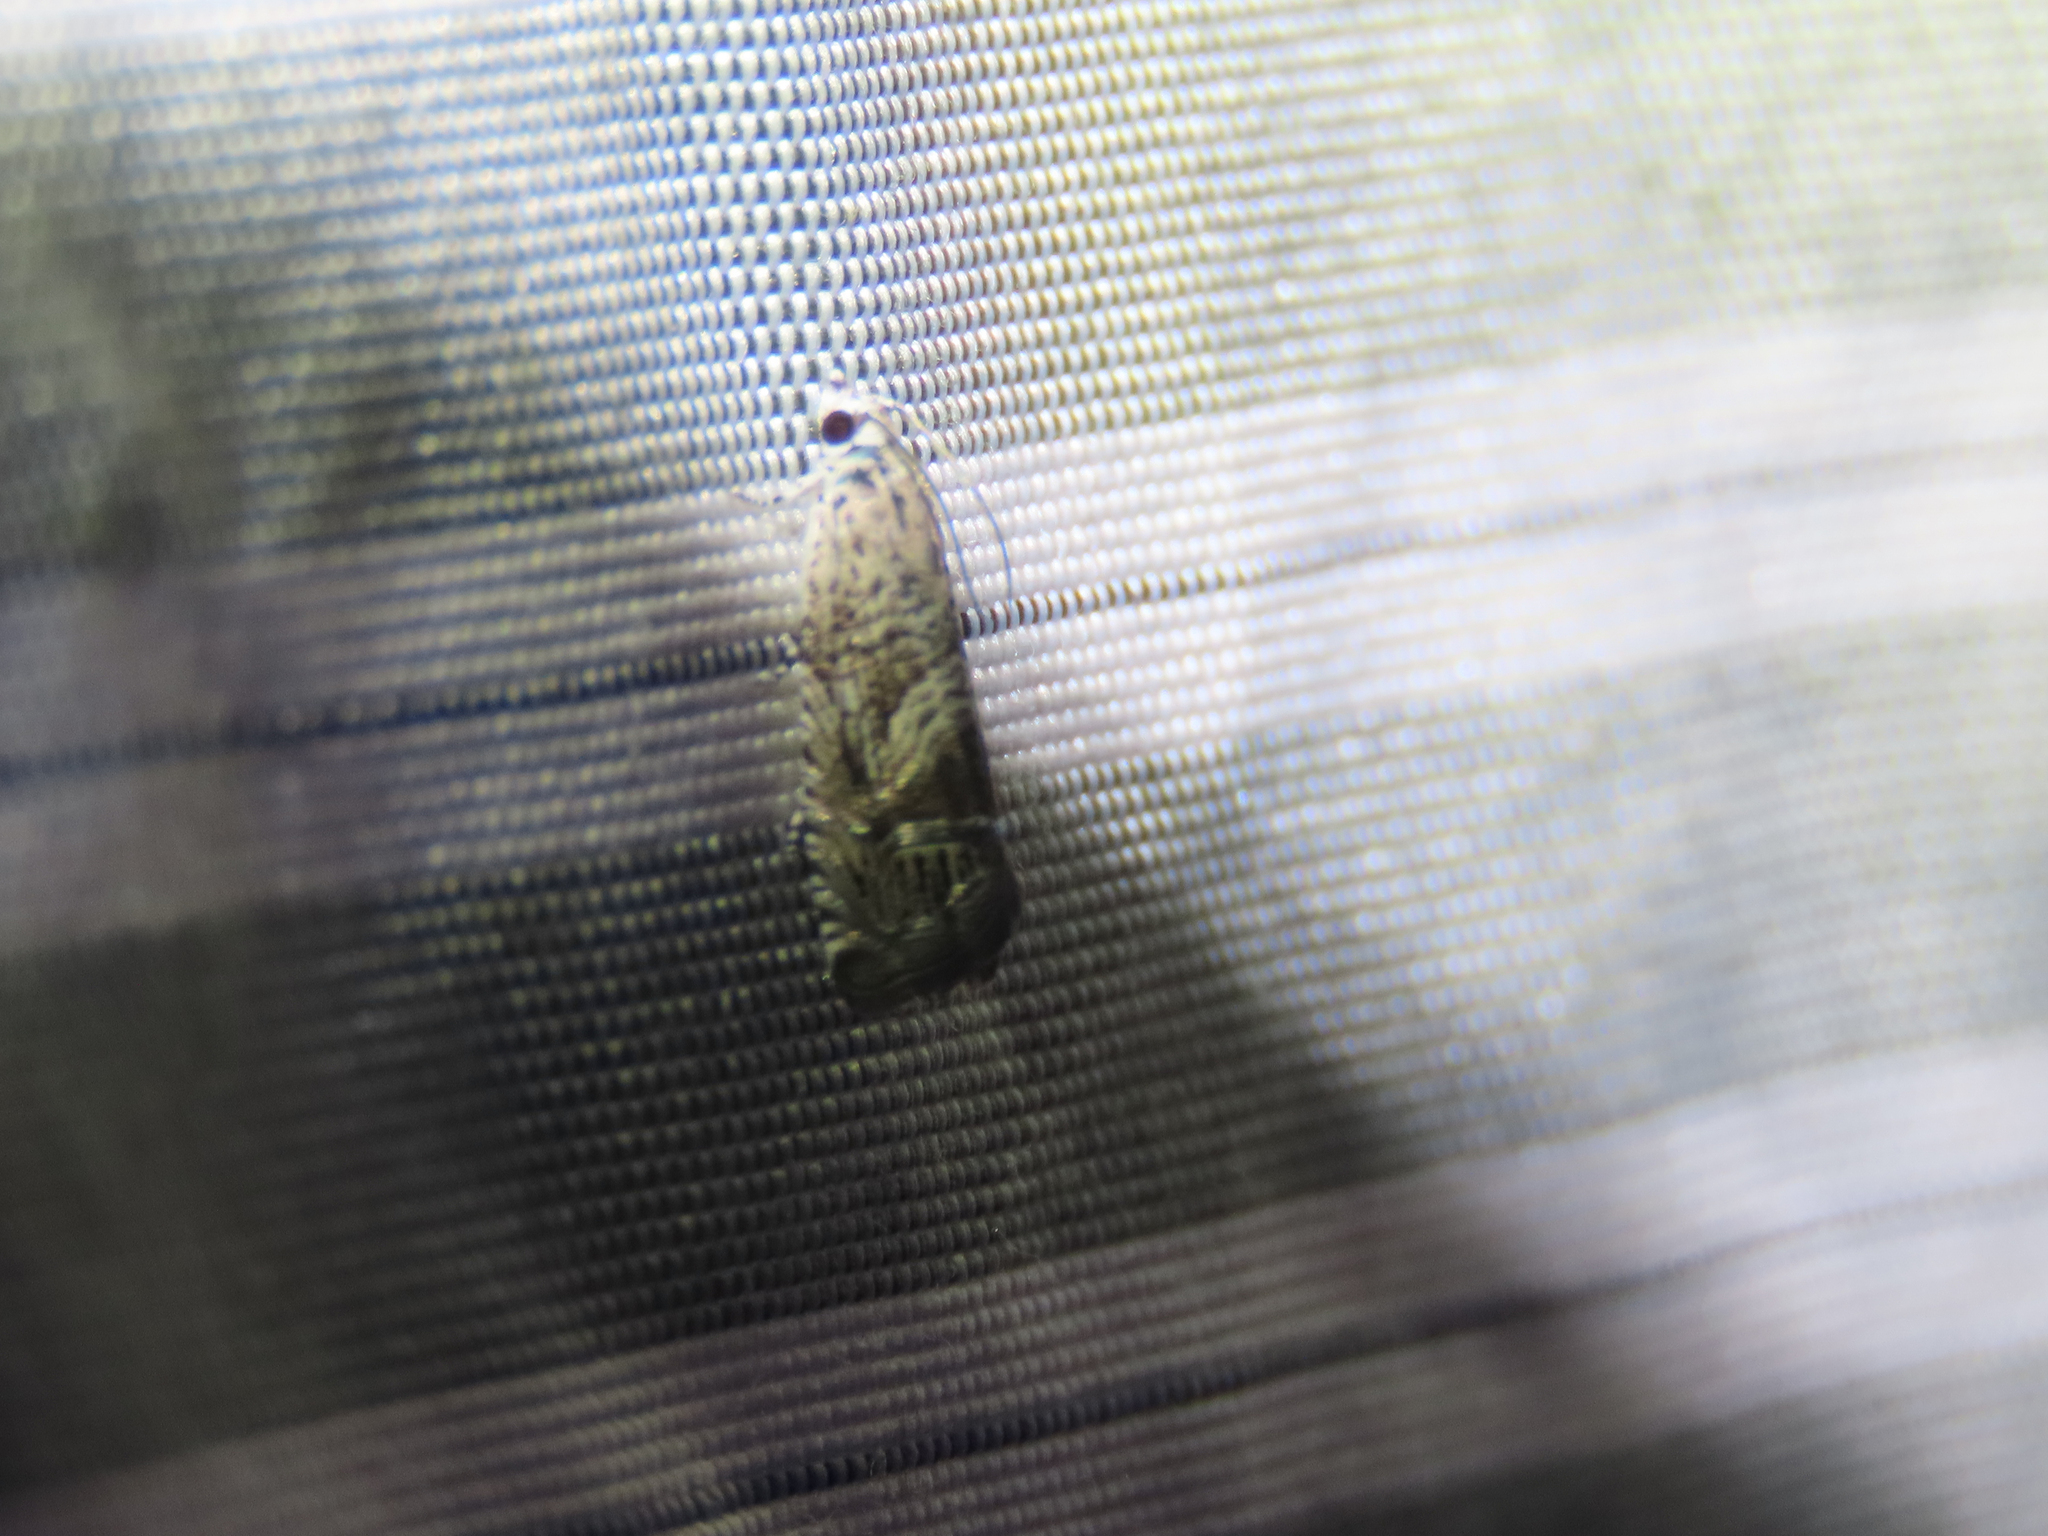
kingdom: Animalia
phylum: Arthropoda
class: Insecta
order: Lepidoptera
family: Tortricidae
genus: Ofatulena
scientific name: Ofatulena duodecemstriata
